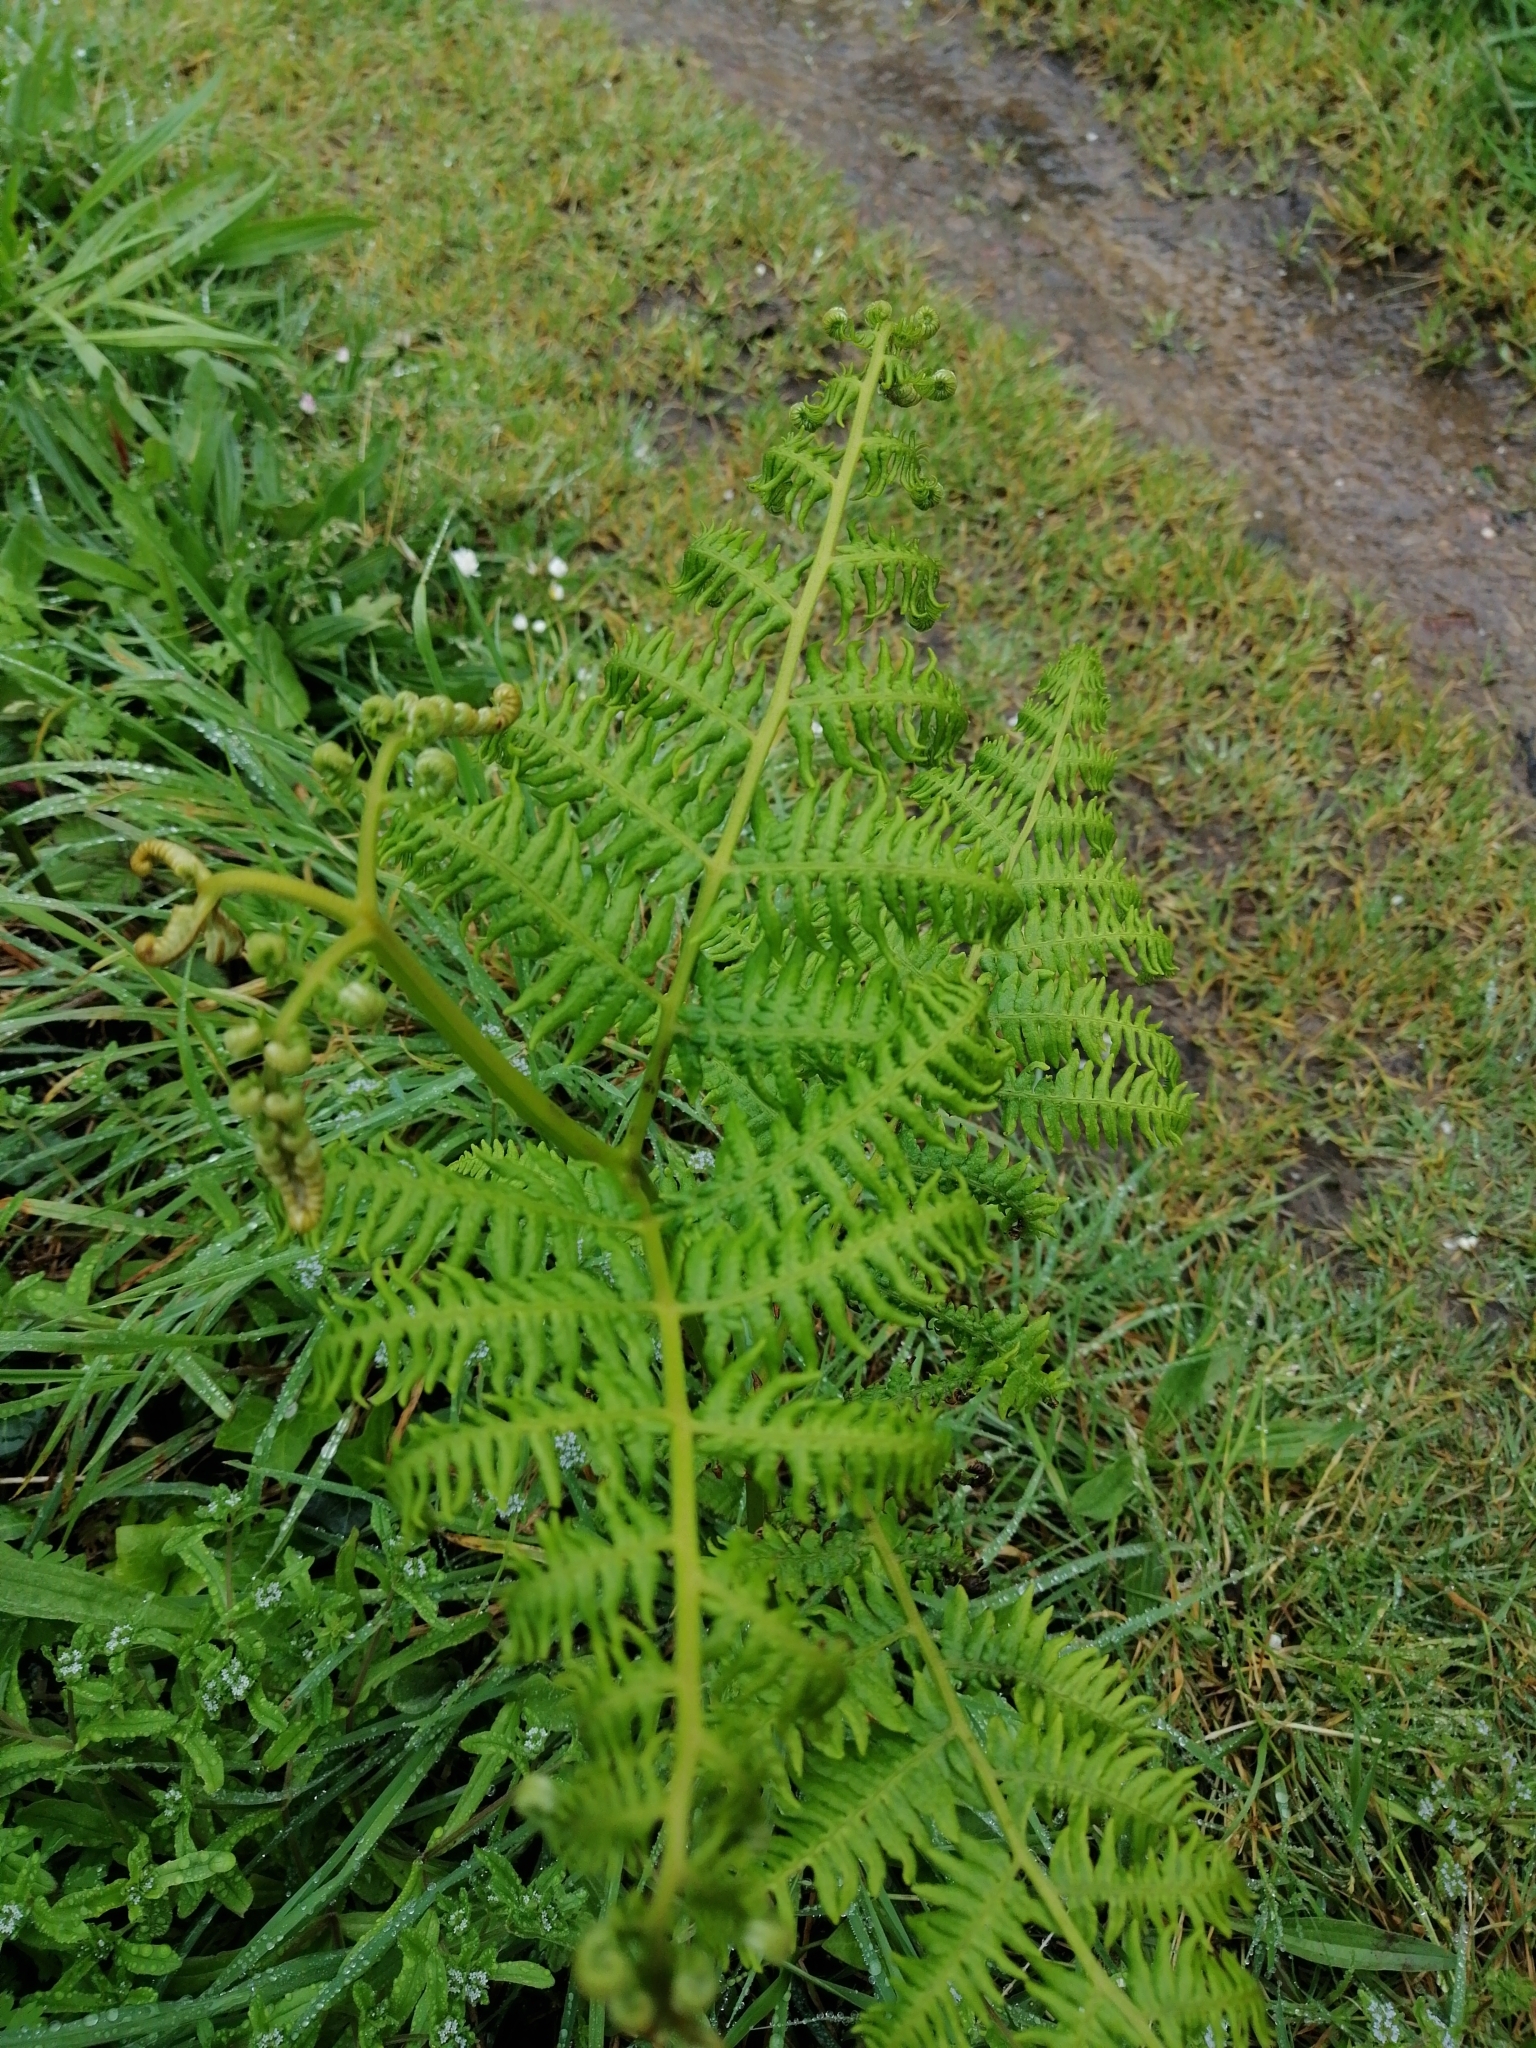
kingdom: Plantae
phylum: Tracheophyta
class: Polypodiopsida
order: Polypodiales
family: Dennstaedtiaceae
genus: Pteridium
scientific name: Pteridium aquilinum
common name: Bracken
